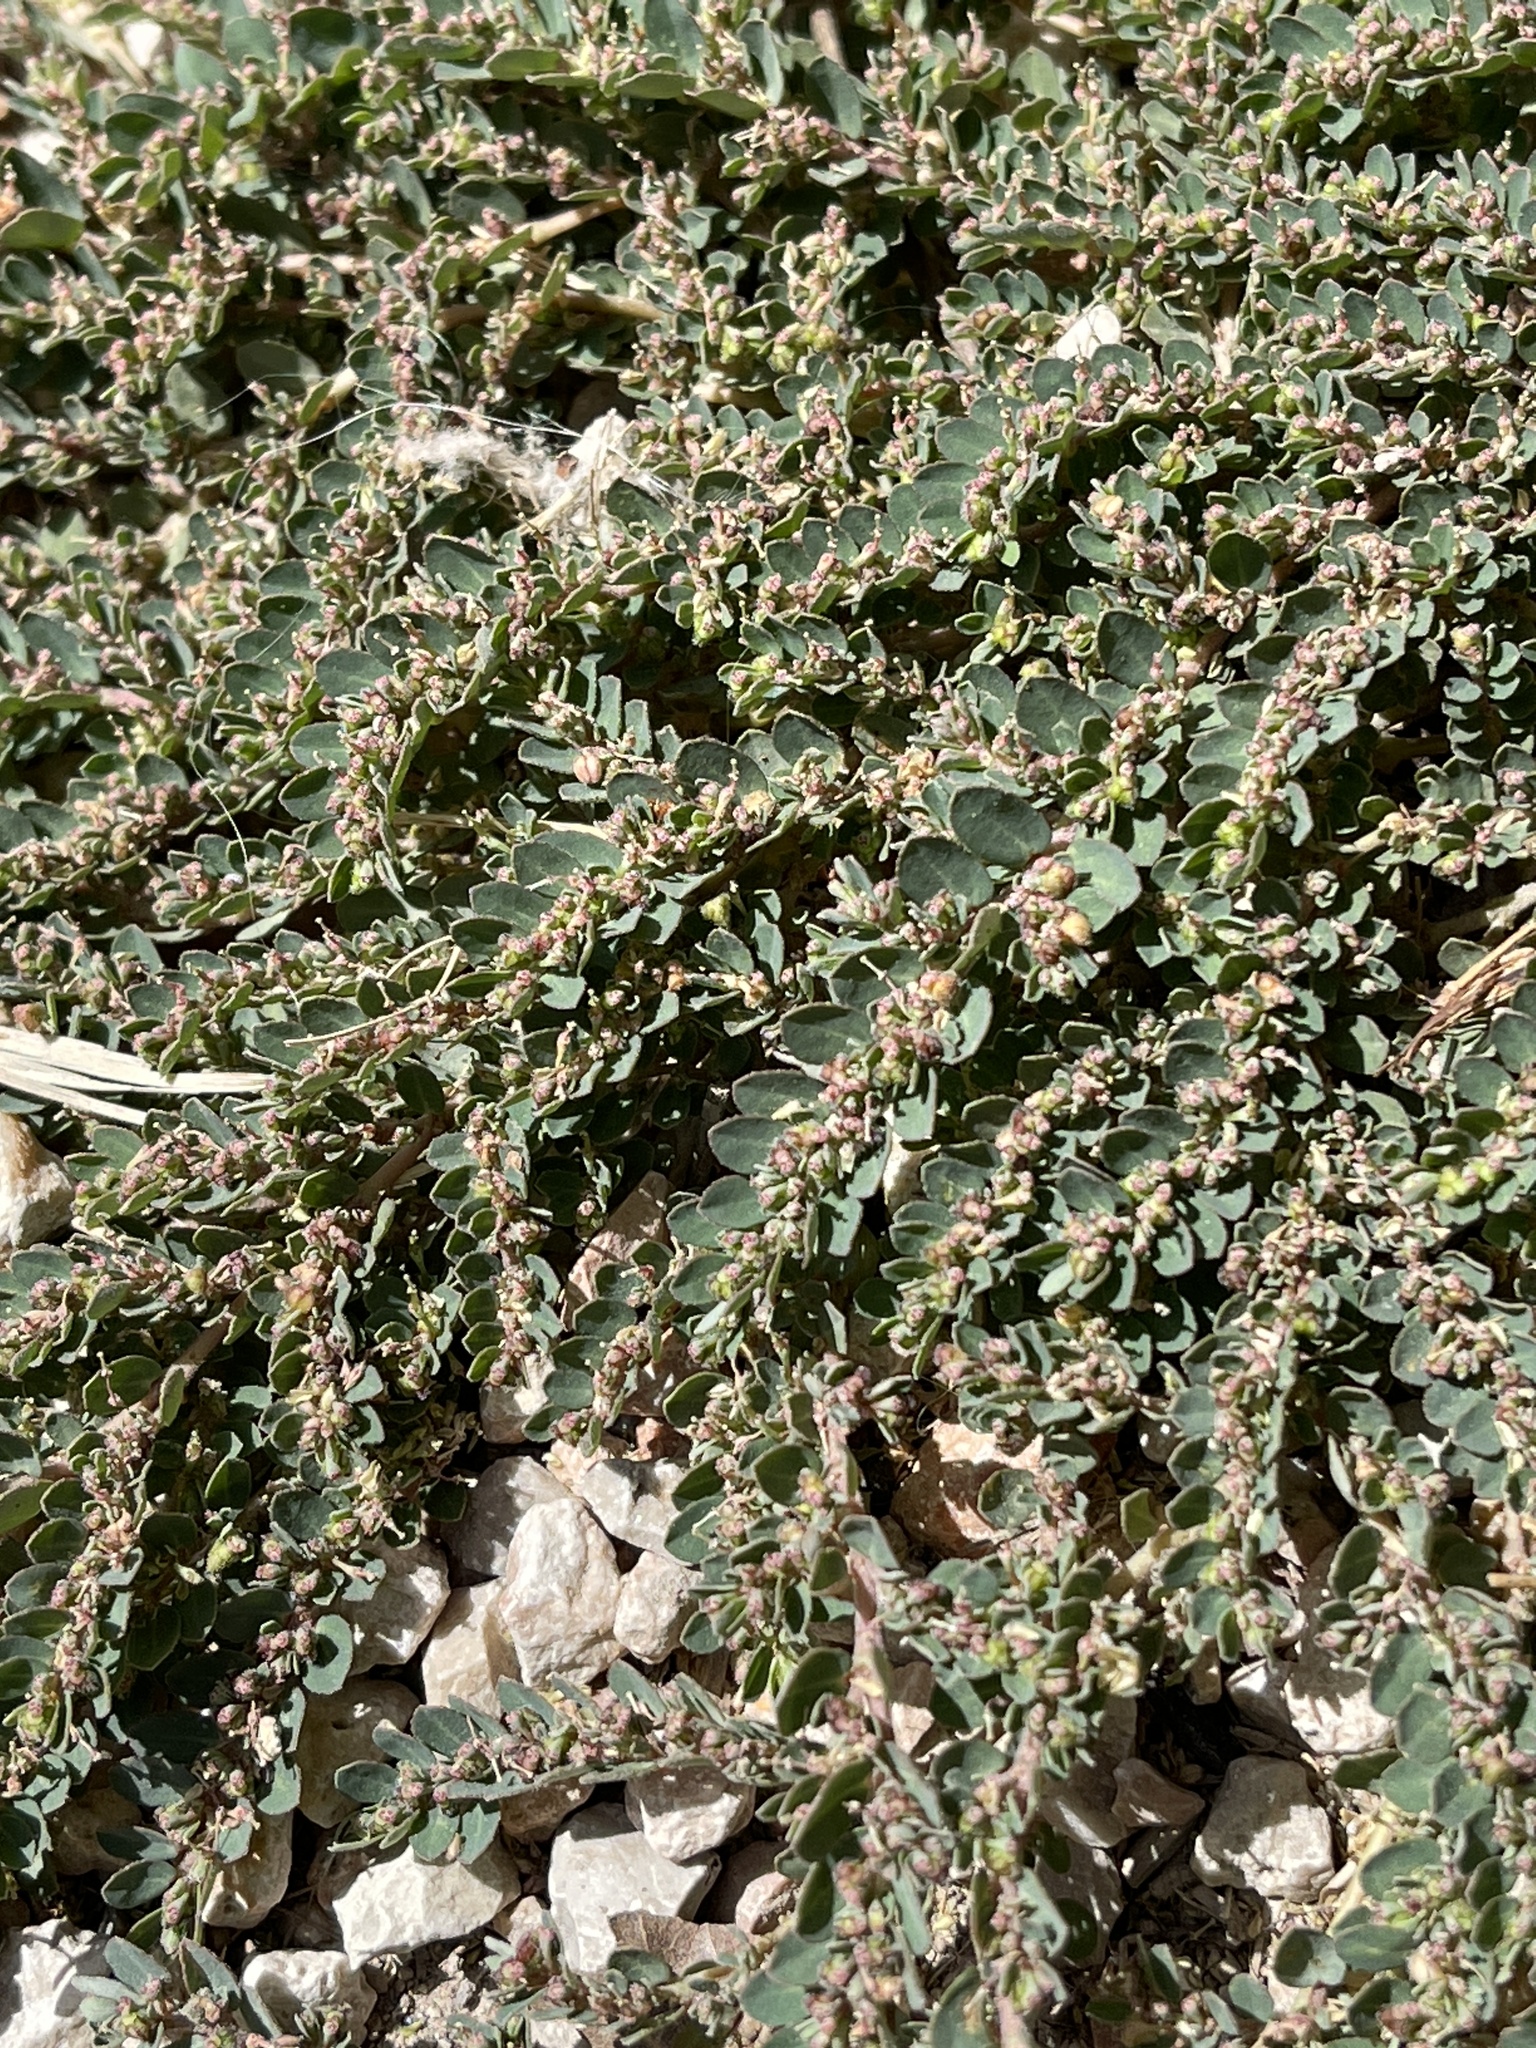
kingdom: Plantae
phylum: Tracheophyta
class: Magnoliopsida
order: Malpighiales
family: Euphorbiaceae
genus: Euphorbia
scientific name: Euphorbia prostrata
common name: Prostrate sandmat
